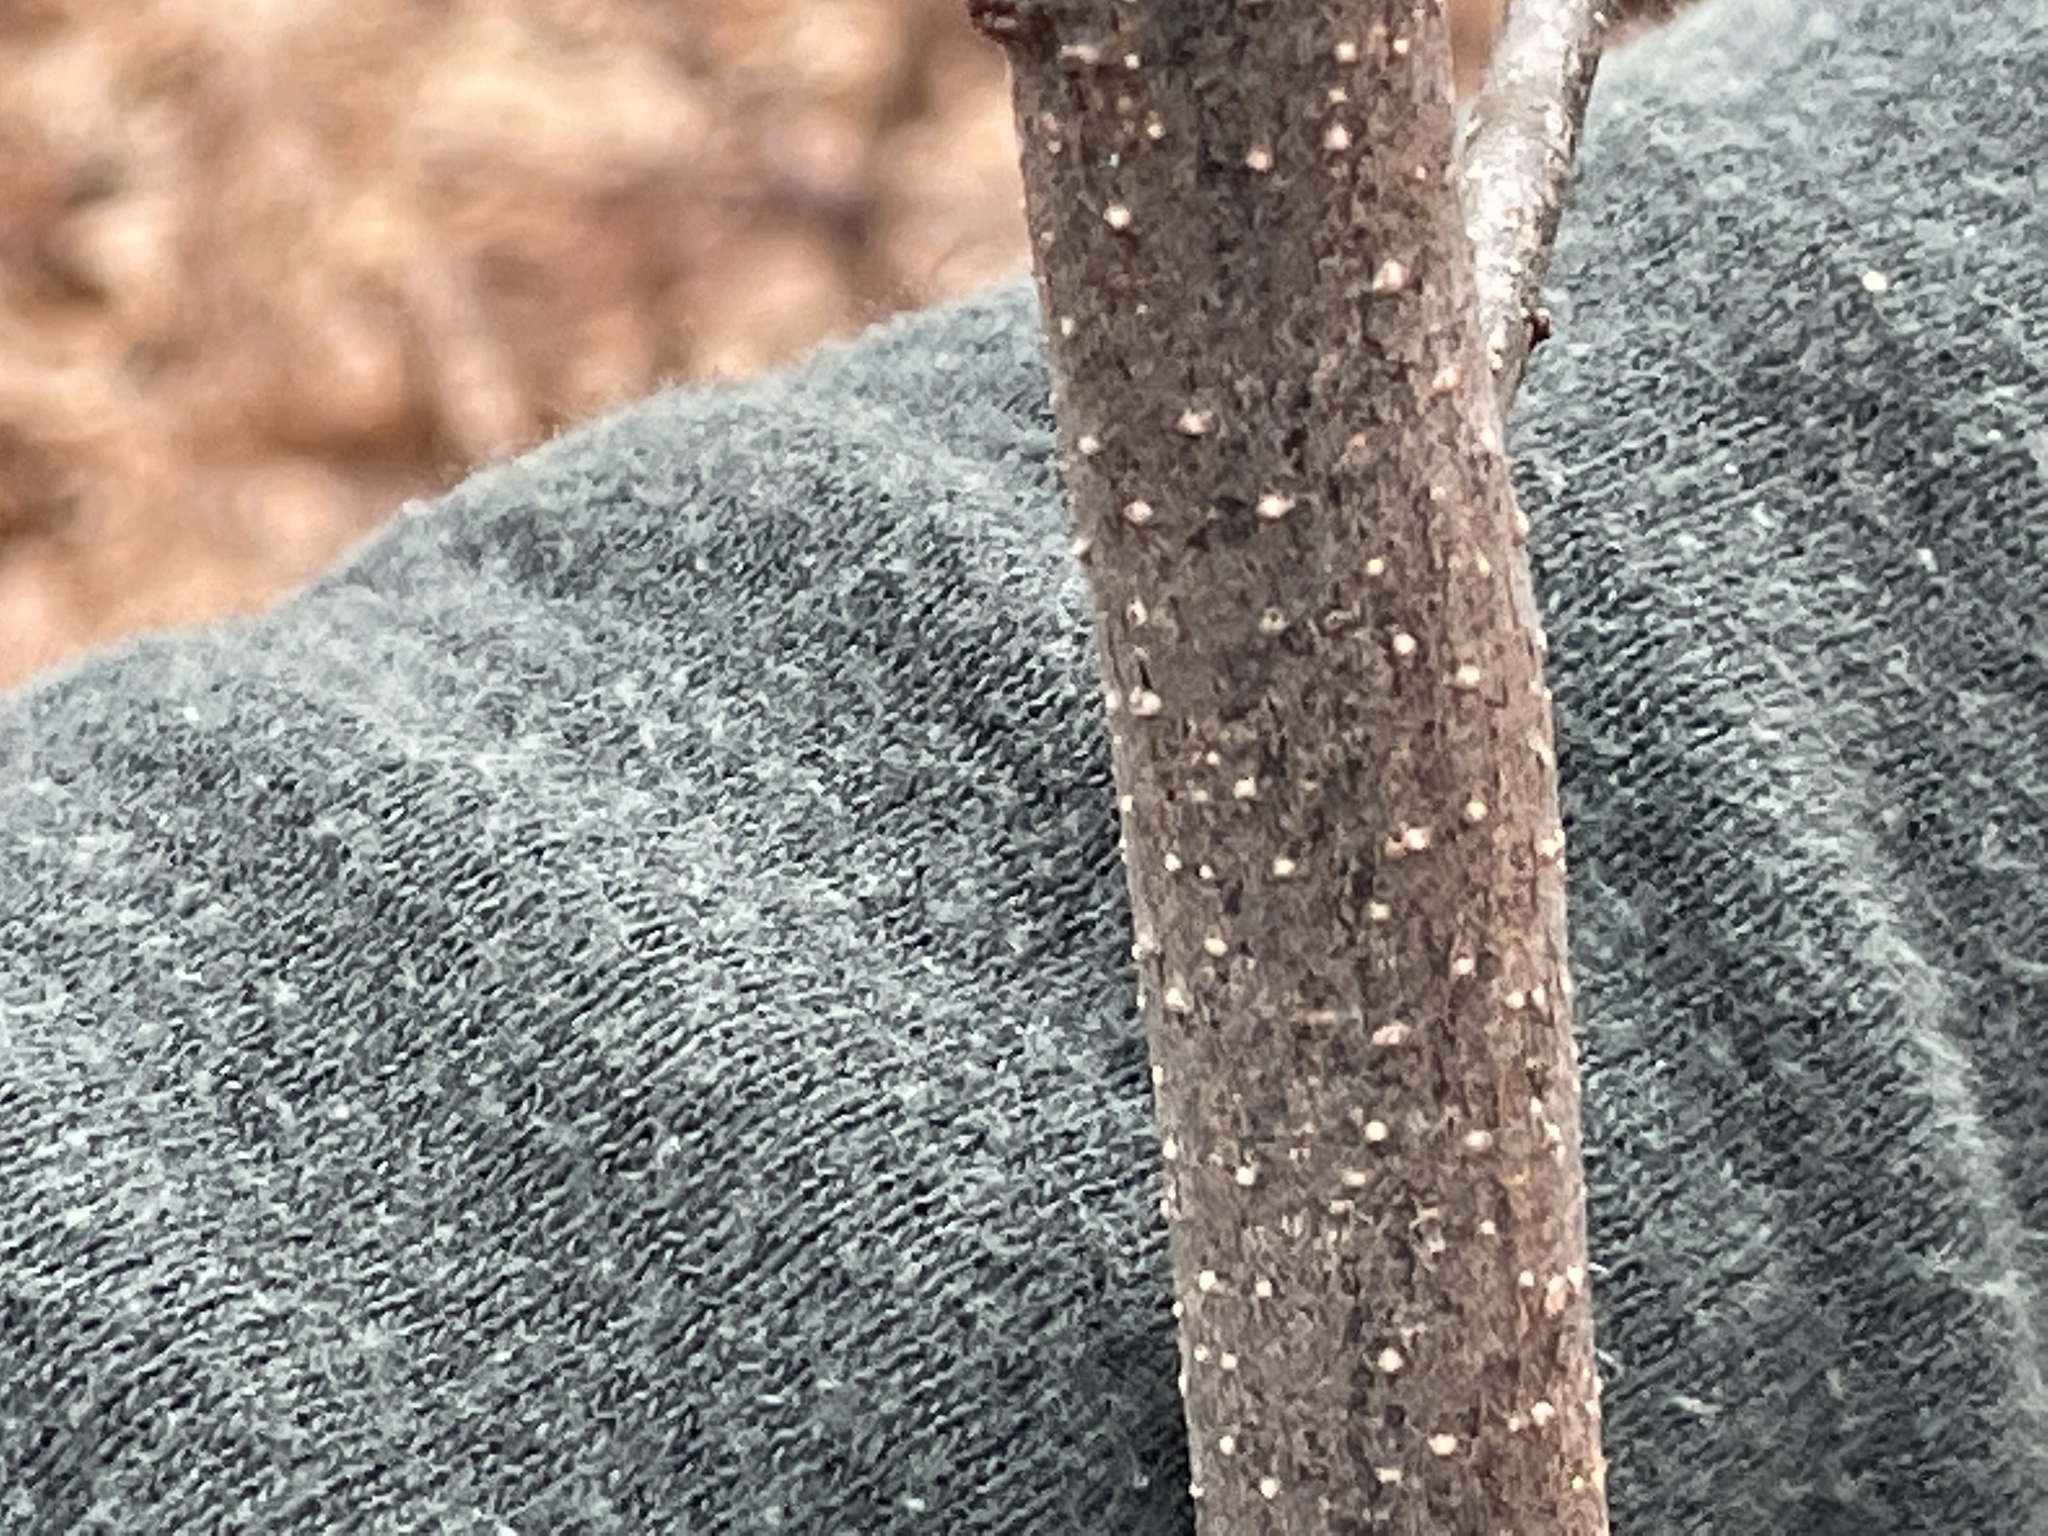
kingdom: Plantae
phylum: Tracheophyta
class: Magnoliopsida
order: Laurales
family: Lauraceae
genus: Lindera
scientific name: Lindera benzoin
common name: Spicebush
